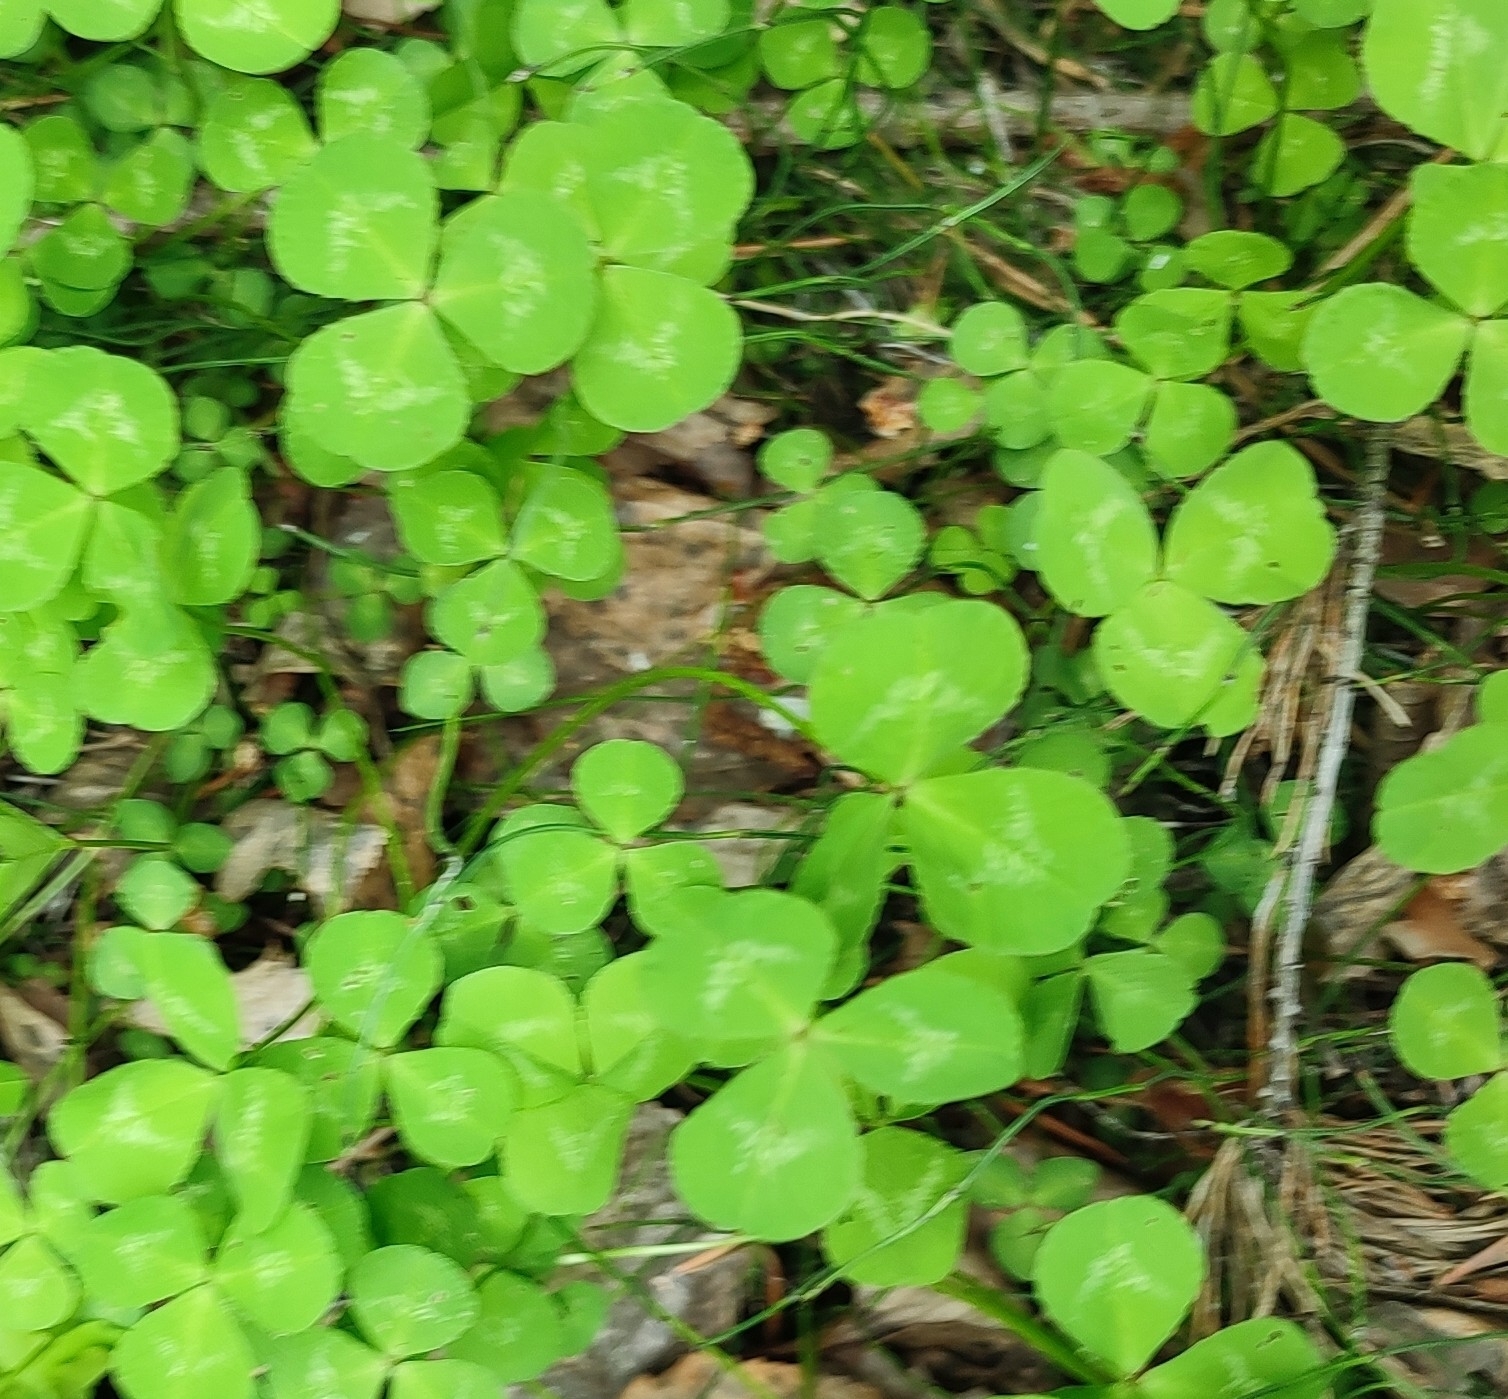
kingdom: Plantae
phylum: Tracheophyta
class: Magnoliopsida
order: Fabales
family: Fabaceae
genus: Trifolium
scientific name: Trifolium pratense
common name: Red clover
